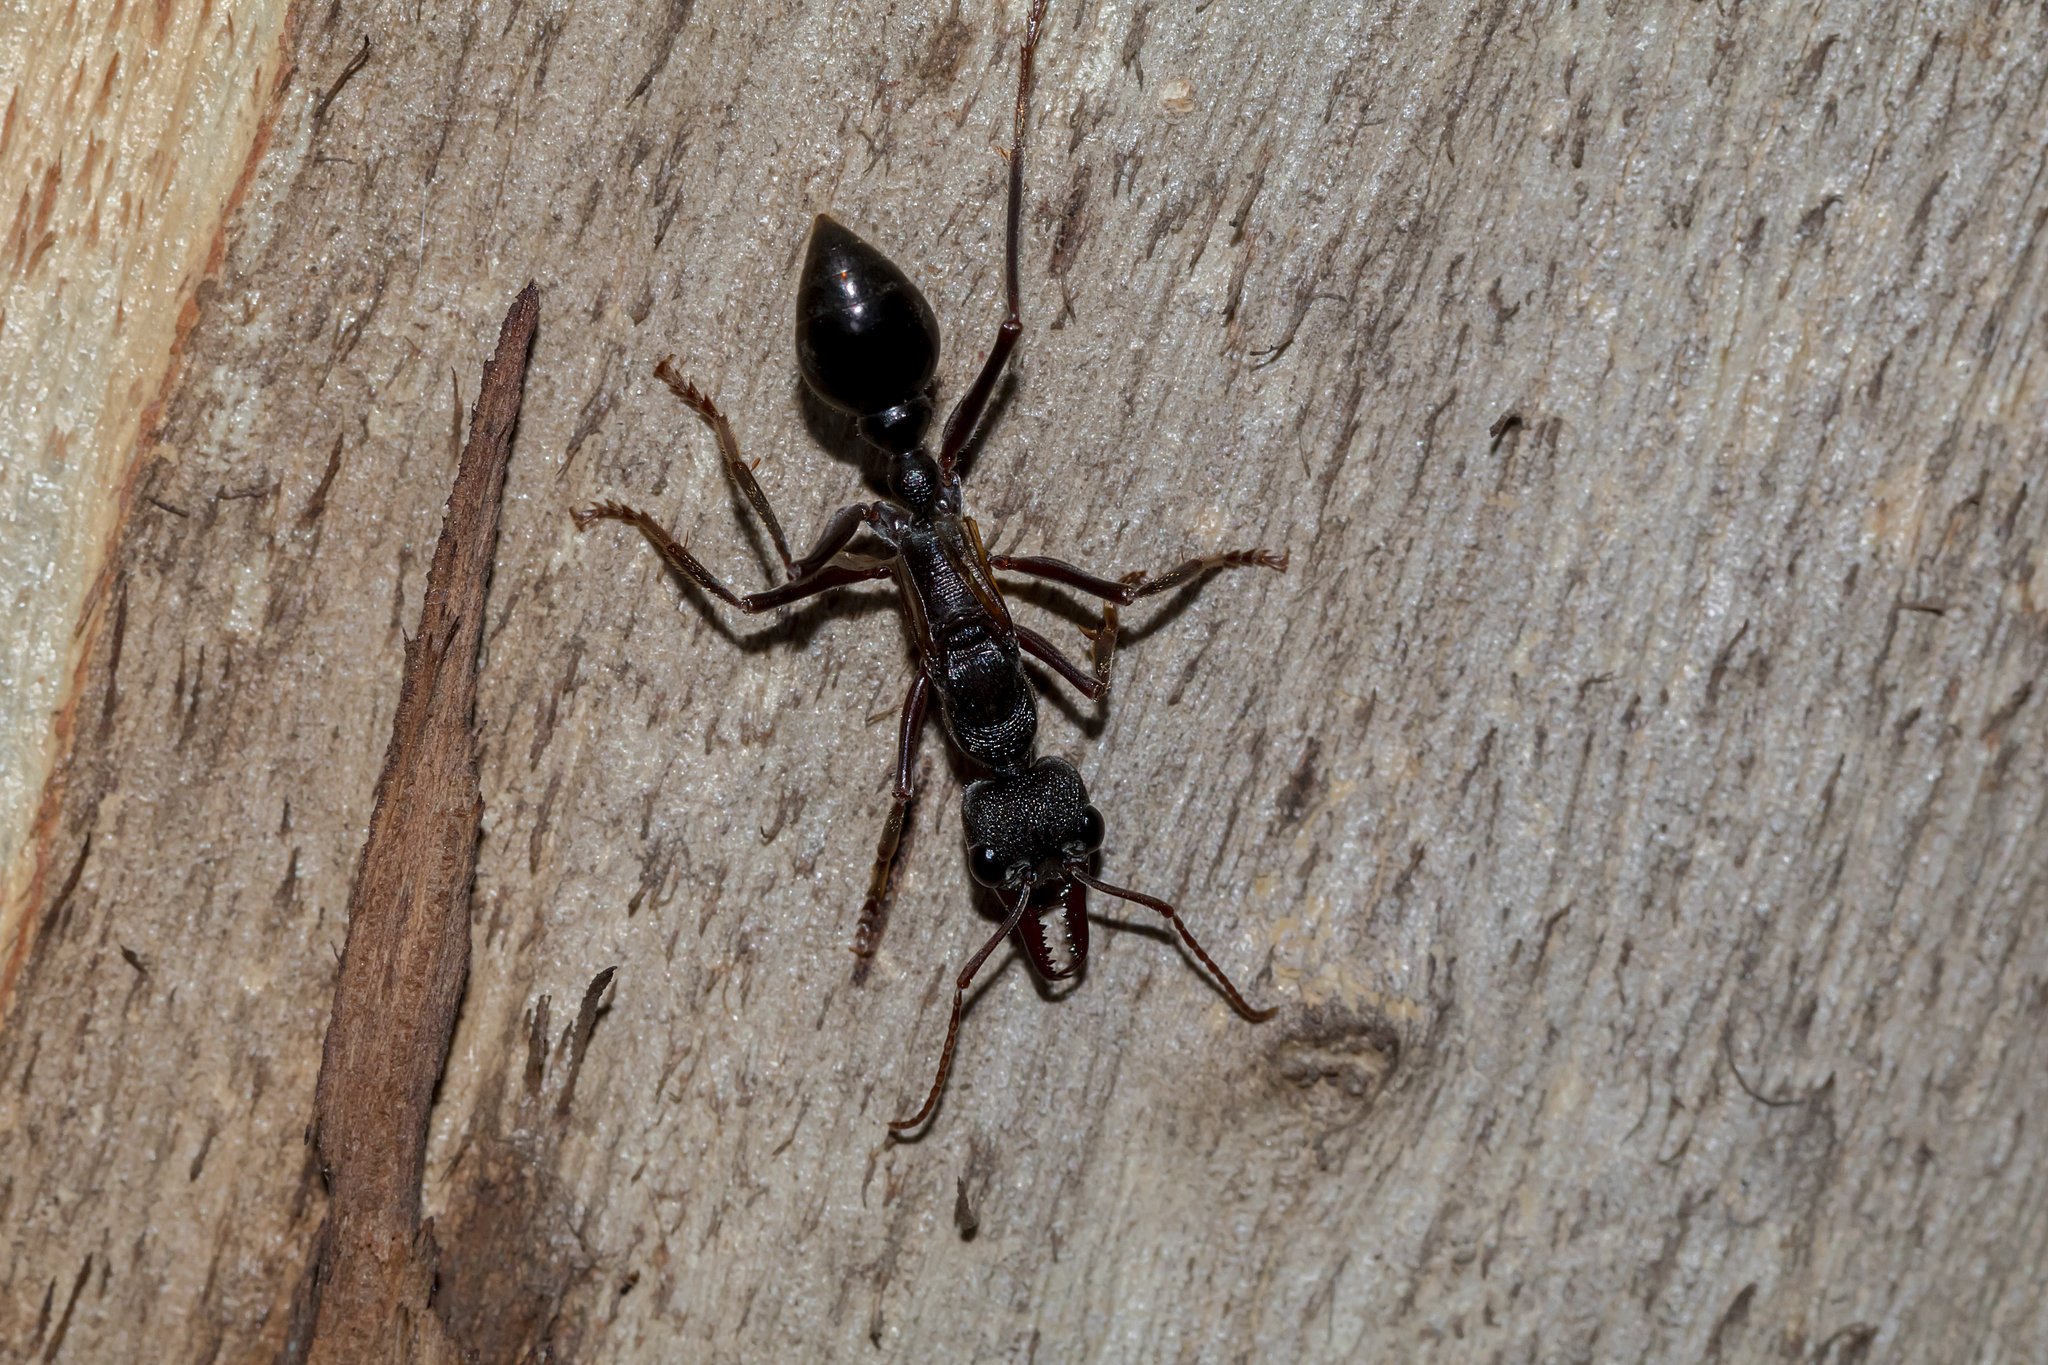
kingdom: Animalia
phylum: Arthropoda
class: Insecta
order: Hymenoptera
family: Formicidae
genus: Myrmecia
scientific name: Myrmecia pyriformis
